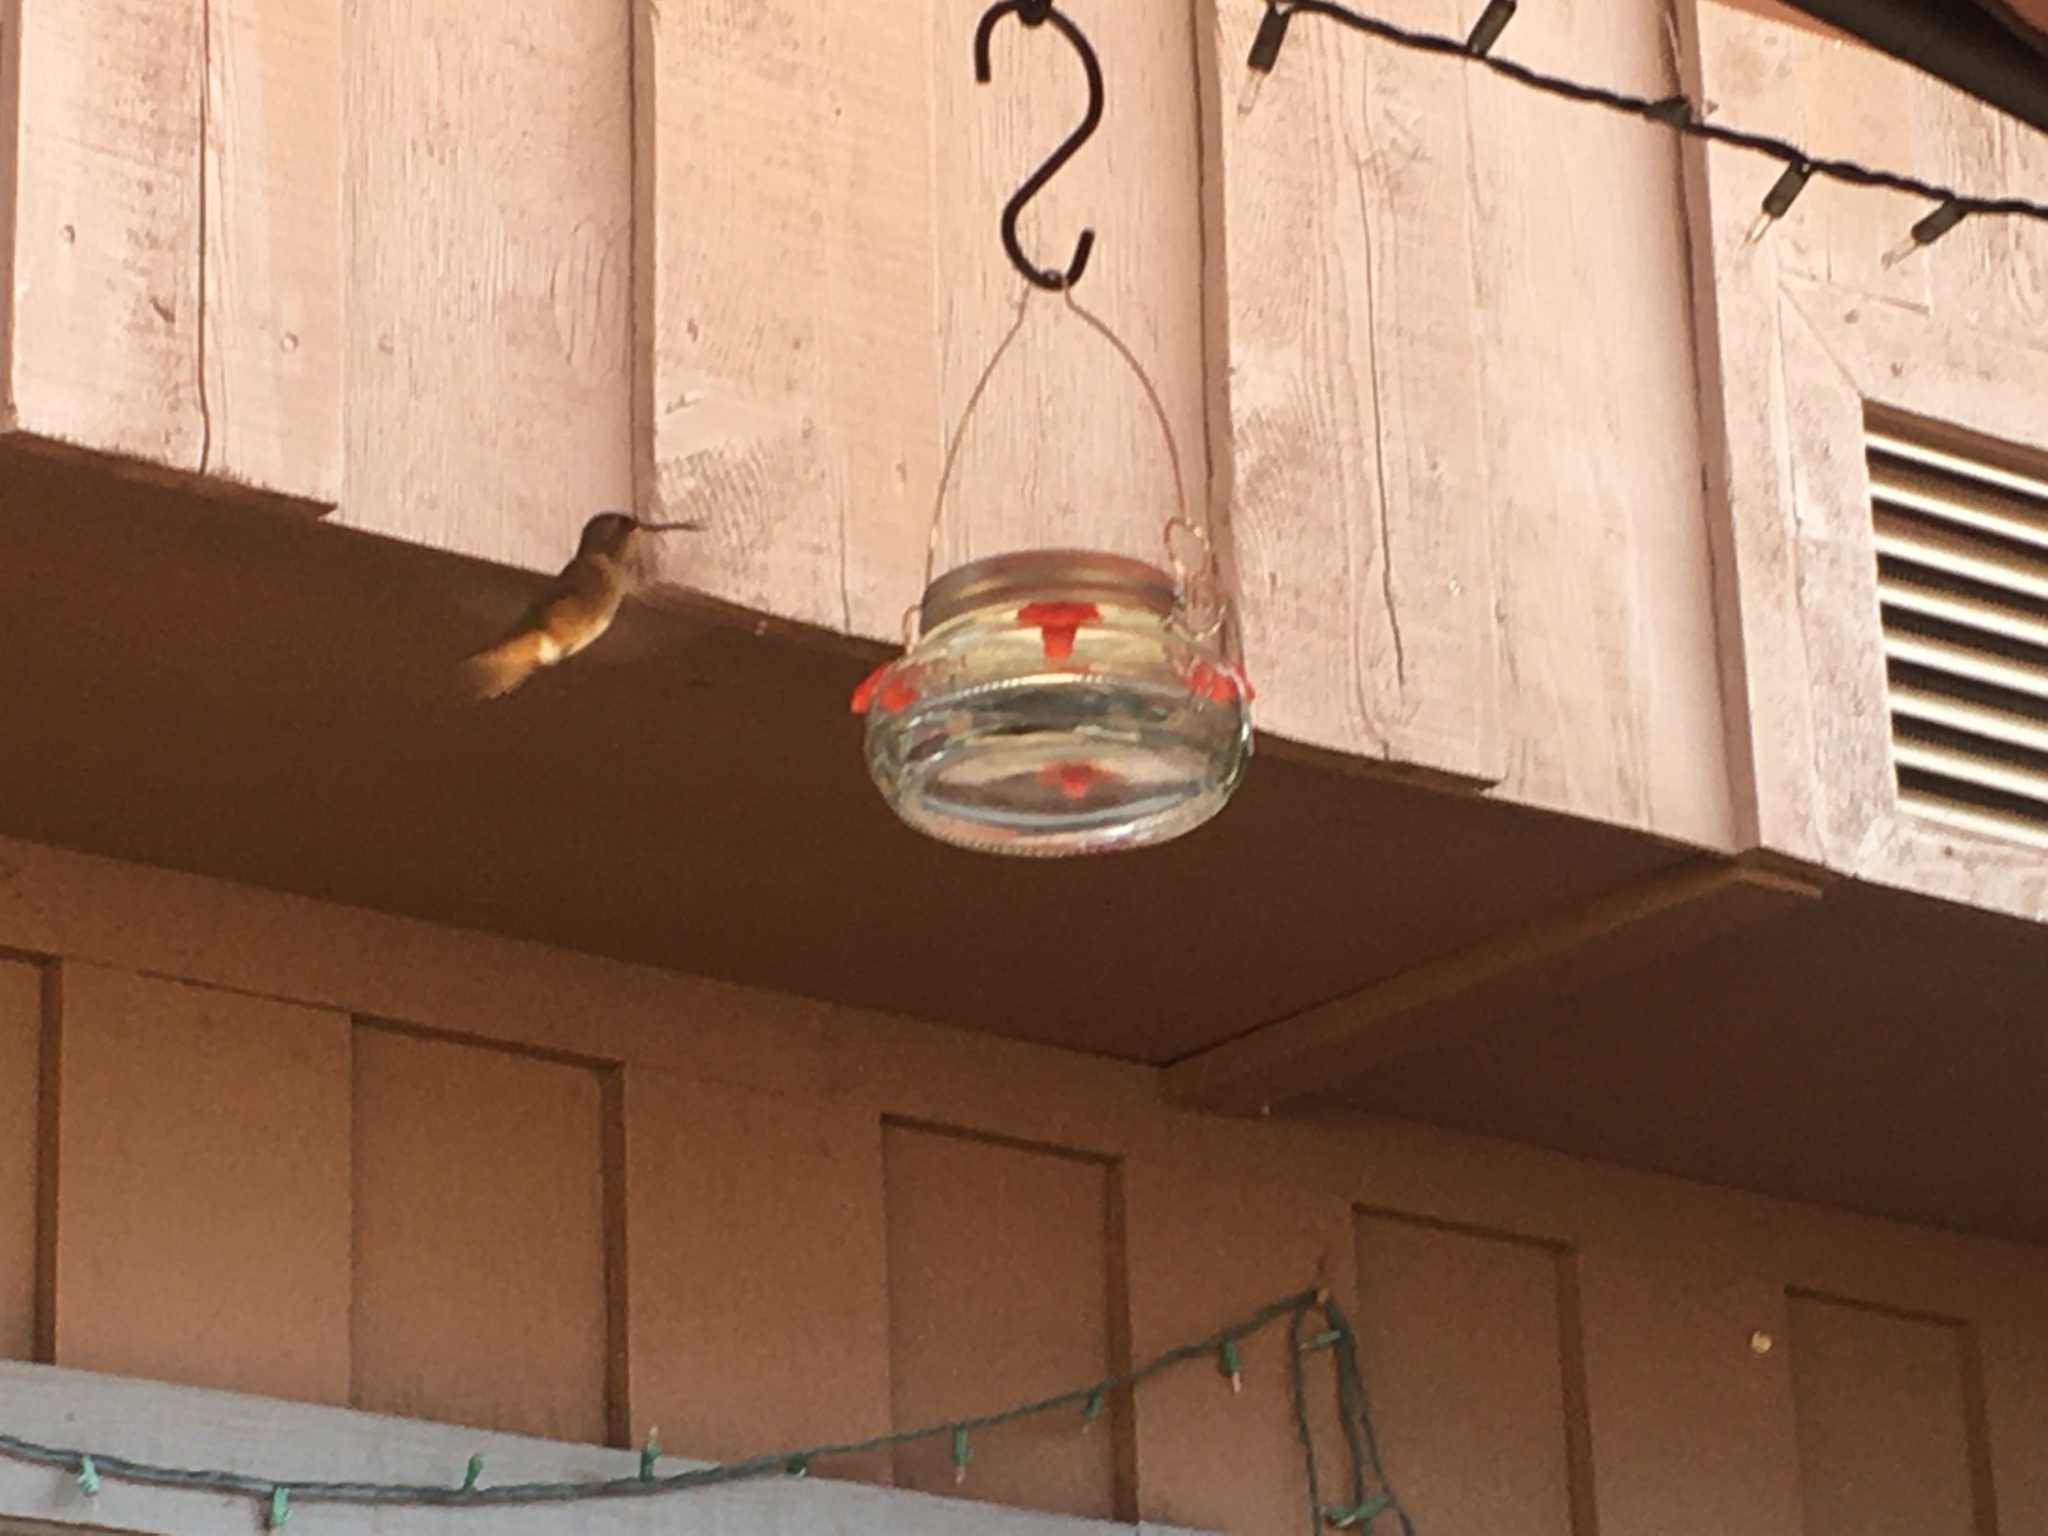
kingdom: Animalia
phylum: Chordata
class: Aves
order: Apodiformes
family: Trochilidae
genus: Selasphorus
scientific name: Selasphorus sasin
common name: Allen's hummingbird
